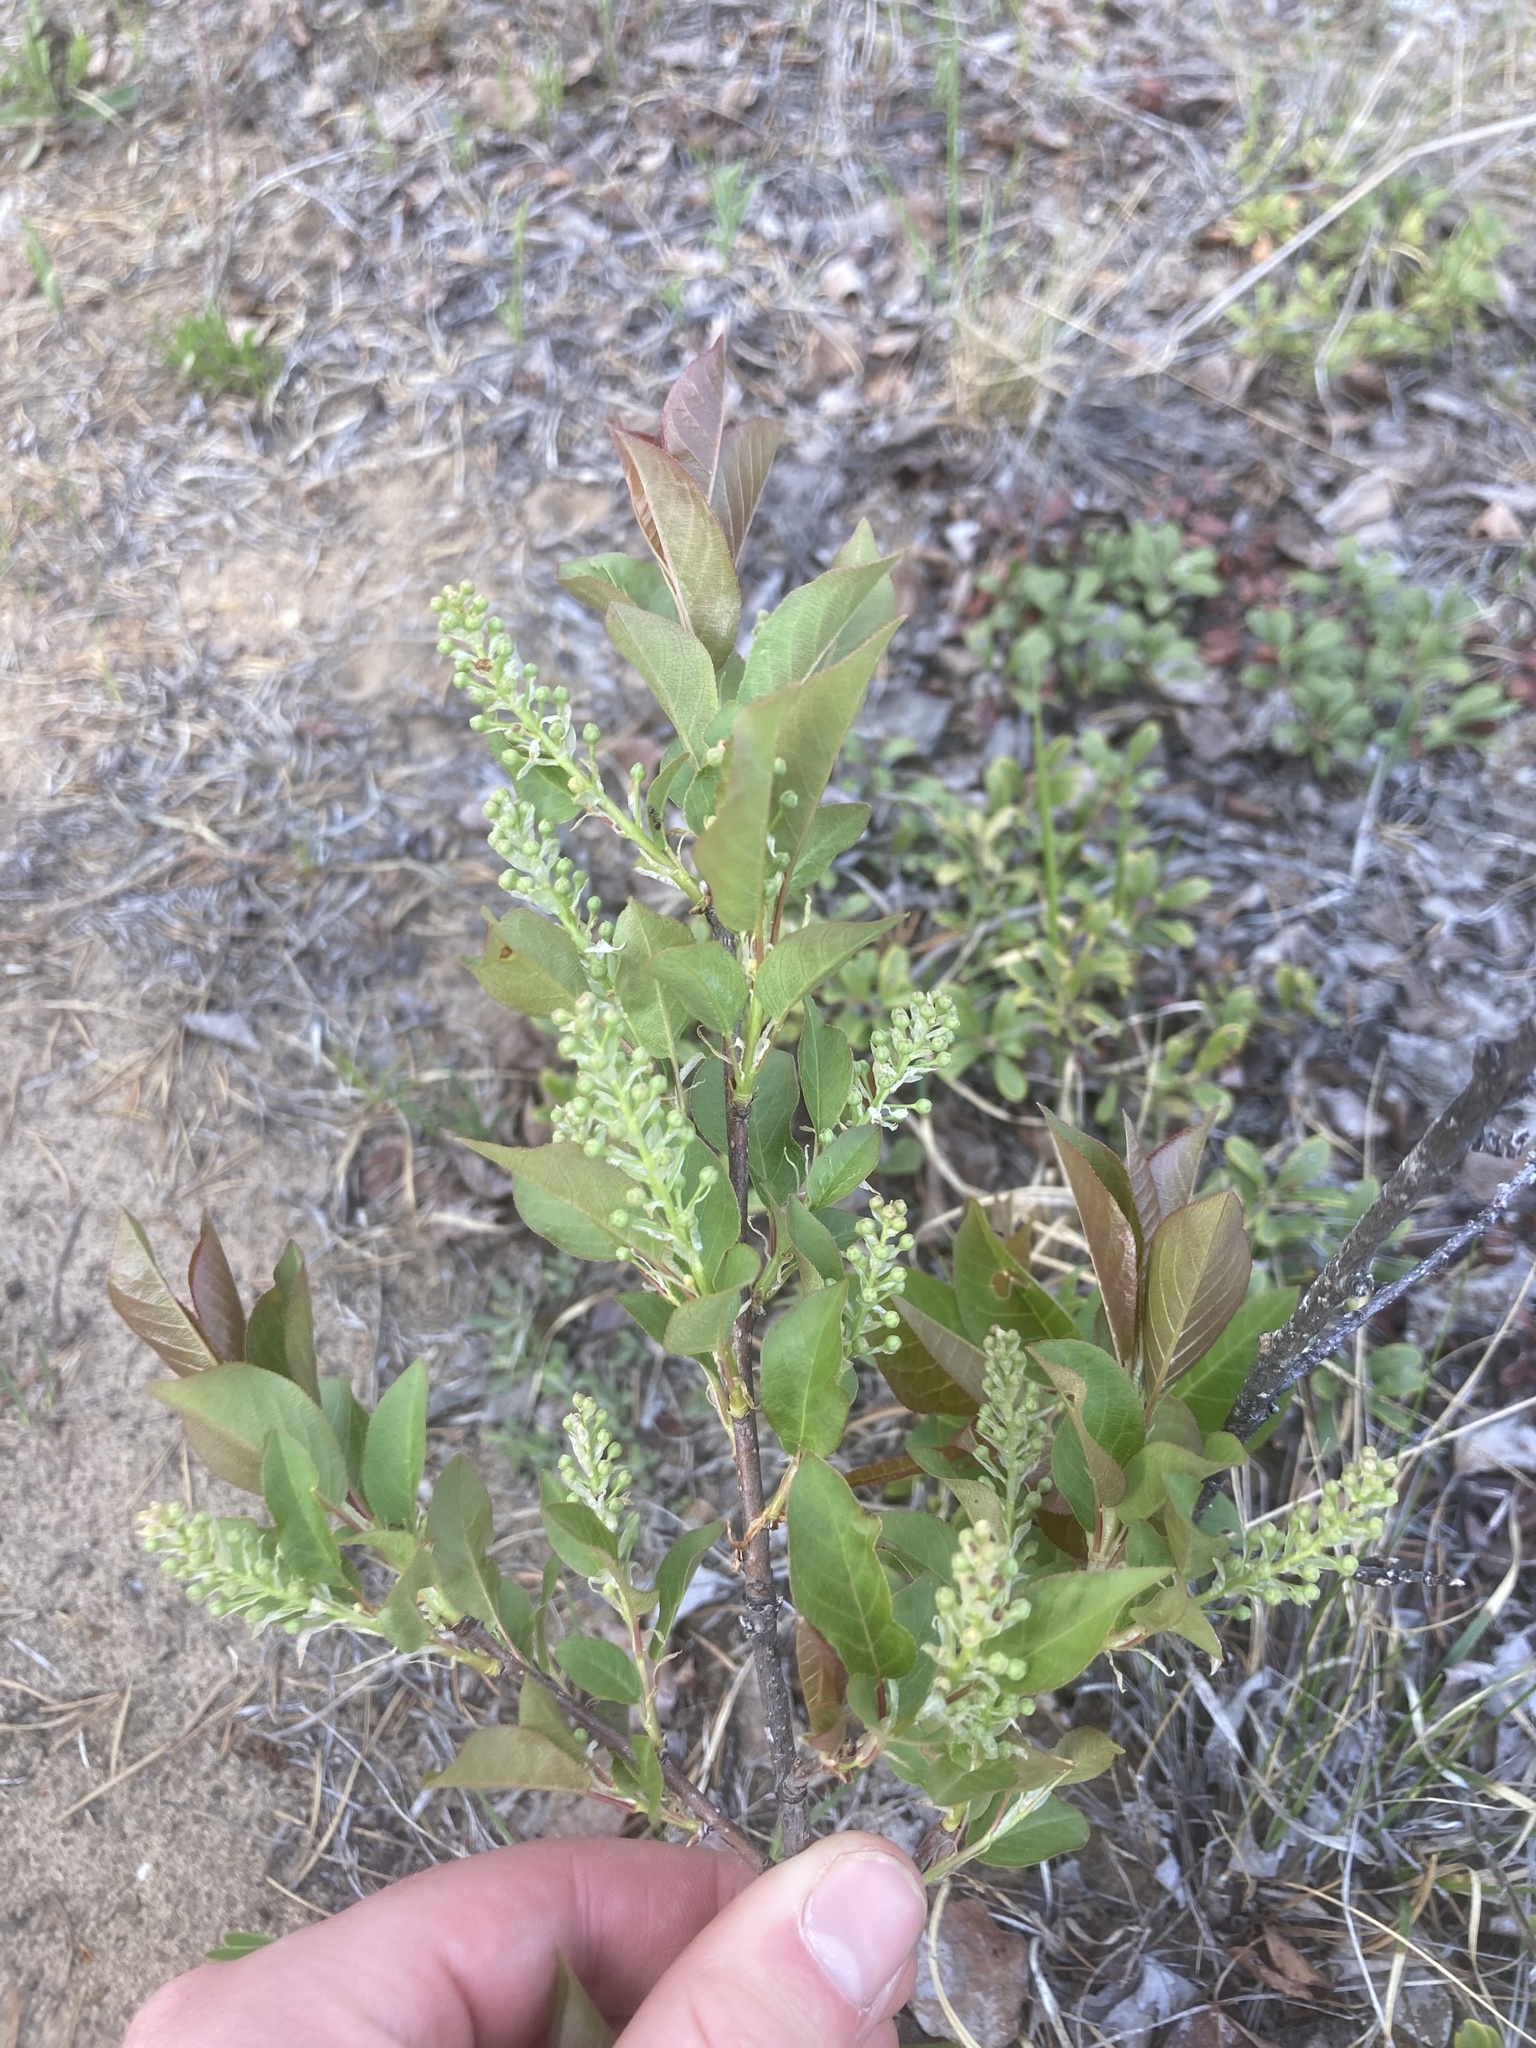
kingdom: Plantae
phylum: Tracheophyta
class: Magnoliopsida
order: Rosales
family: Rosaceae
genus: Prunus
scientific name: Prunus virginiana
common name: Chokecherry
